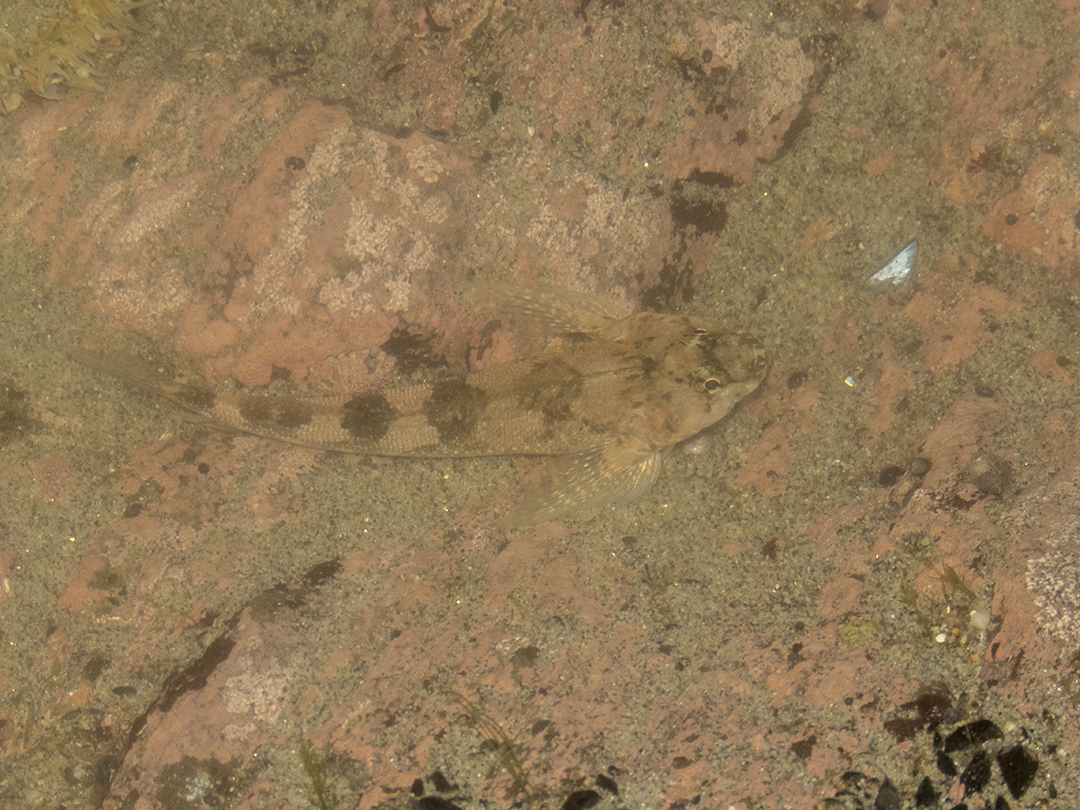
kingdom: Animalia
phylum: Chordata
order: Perciformes
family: Tripterygiidae
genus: Bellapiscis
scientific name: Bellapiscis medius
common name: Twister
